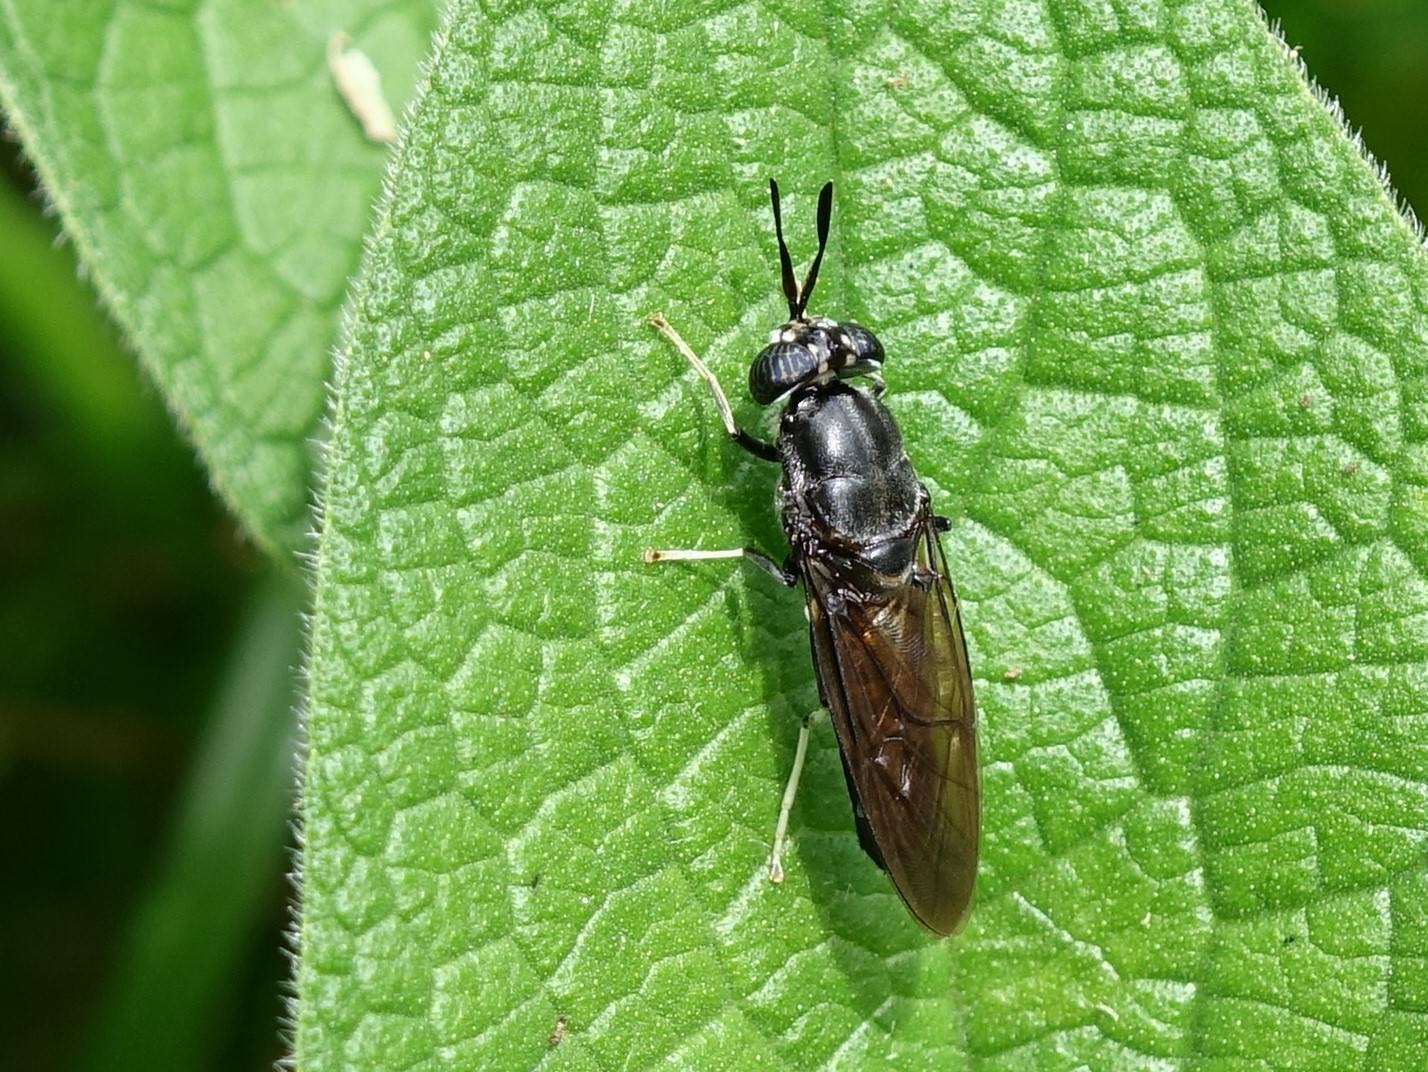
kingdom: Animalia
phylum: Arthropoda
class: Insecta
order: Diptera
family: Stratiomyidae
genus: Hermetia
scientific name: Hermetia illucens
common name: Black soldier fly
